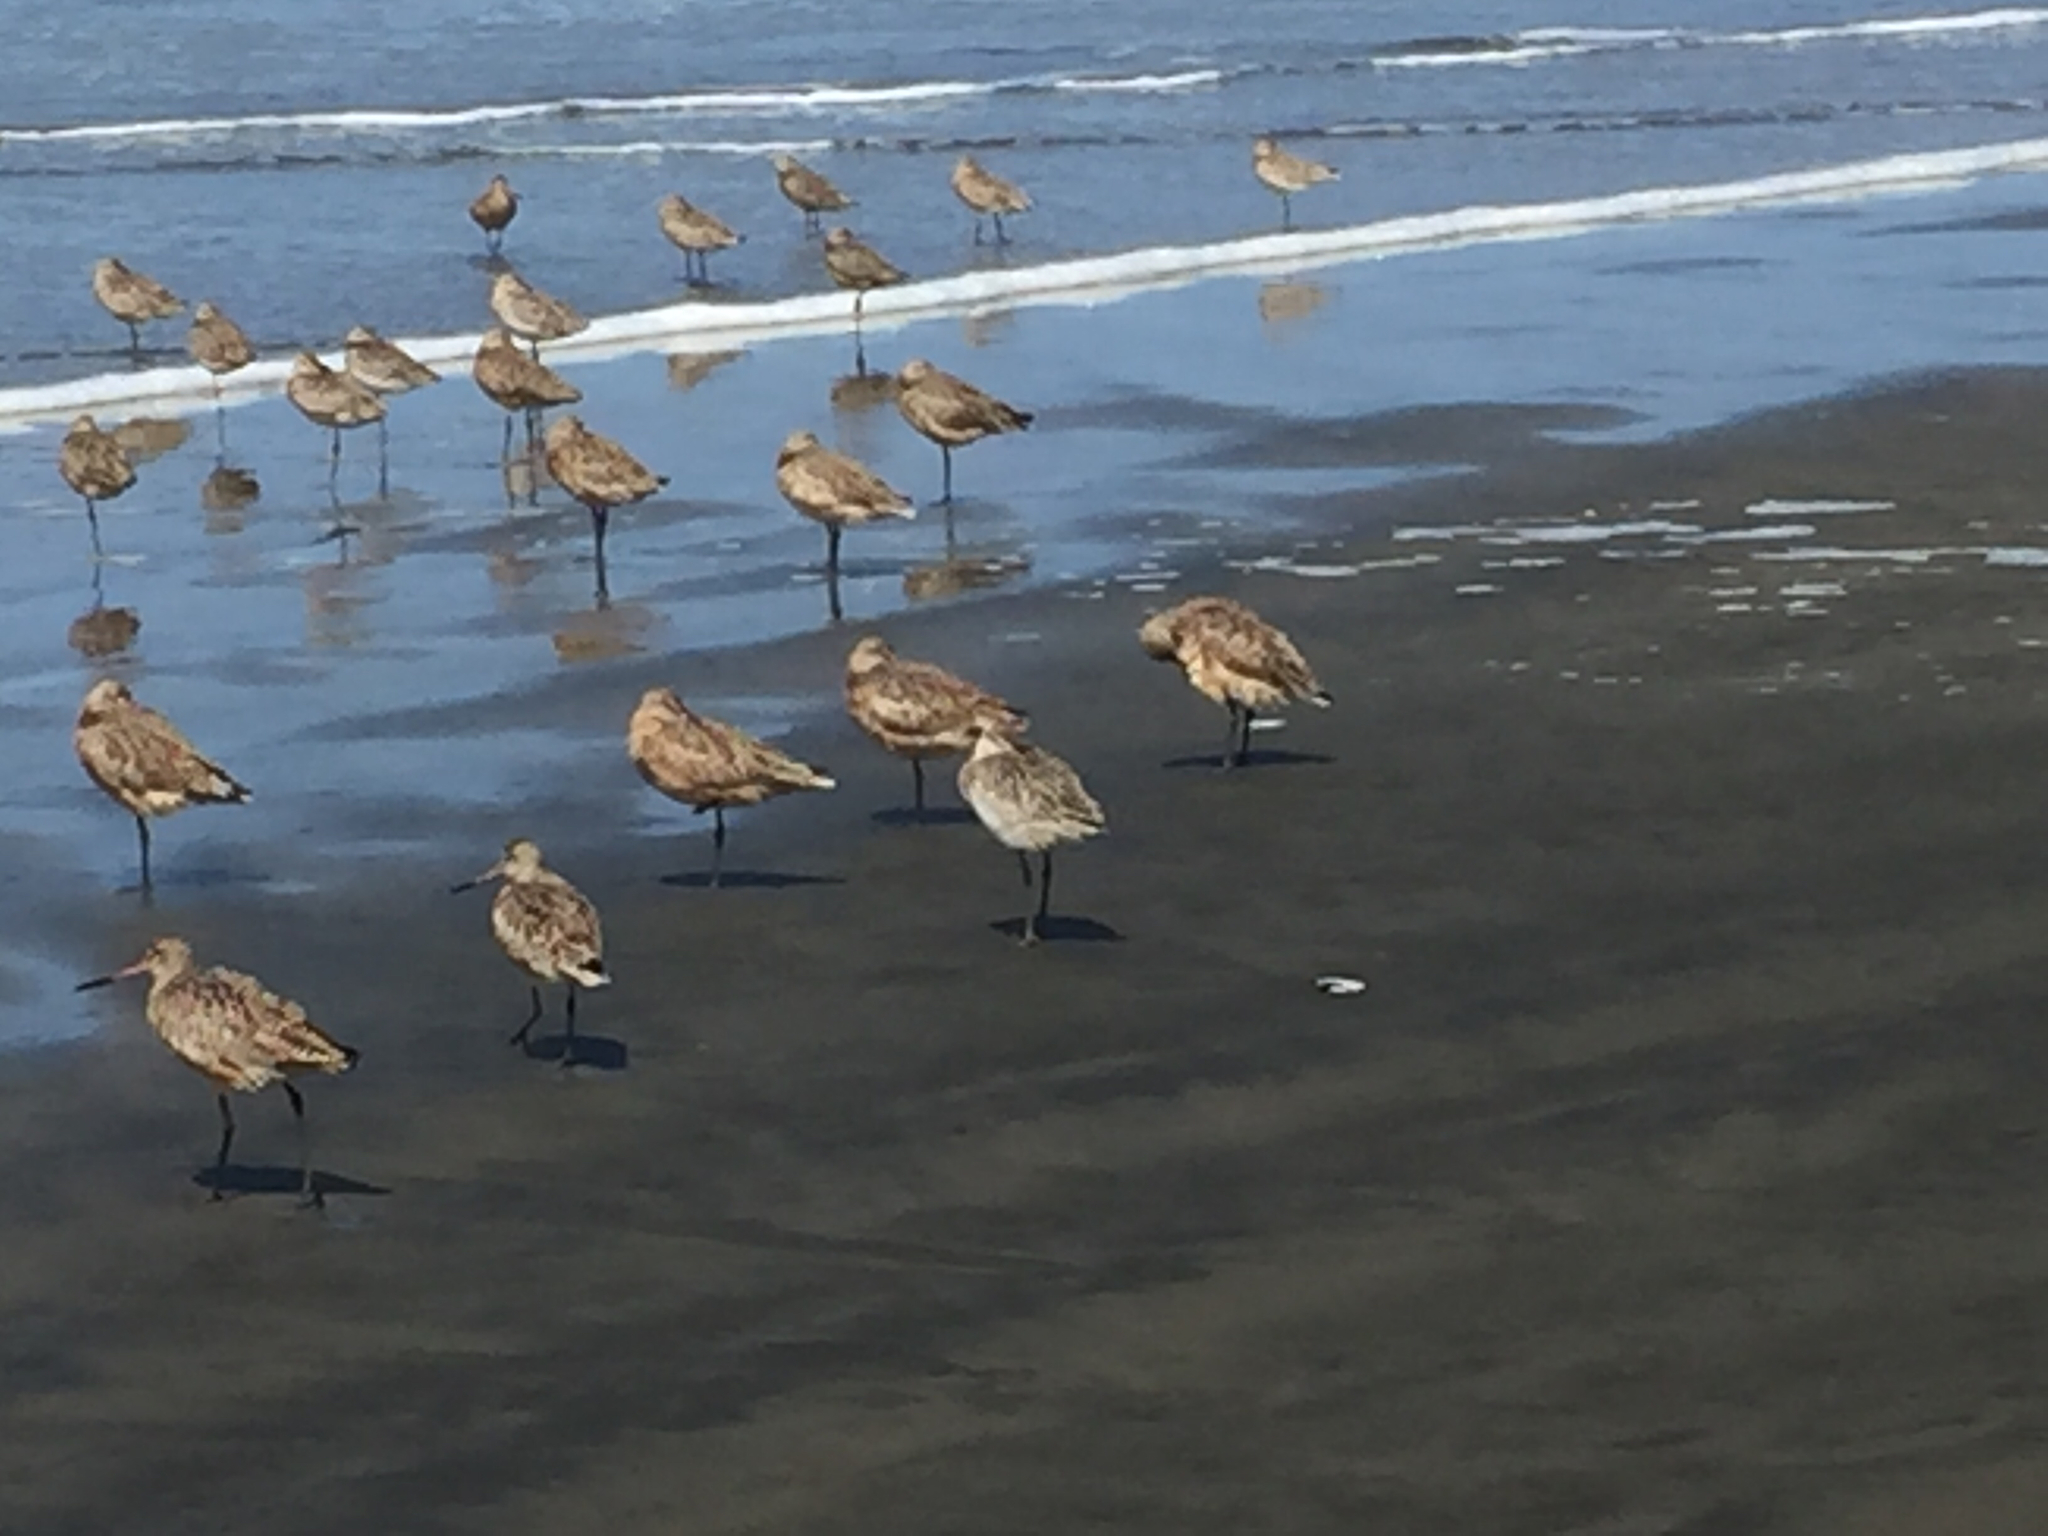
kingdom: Animalia
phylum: Chordata
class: Aves
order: Charadriiformes
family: Scolopacidae
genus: Limosa
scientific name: Limosa fedoa
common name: Marbled godwit
